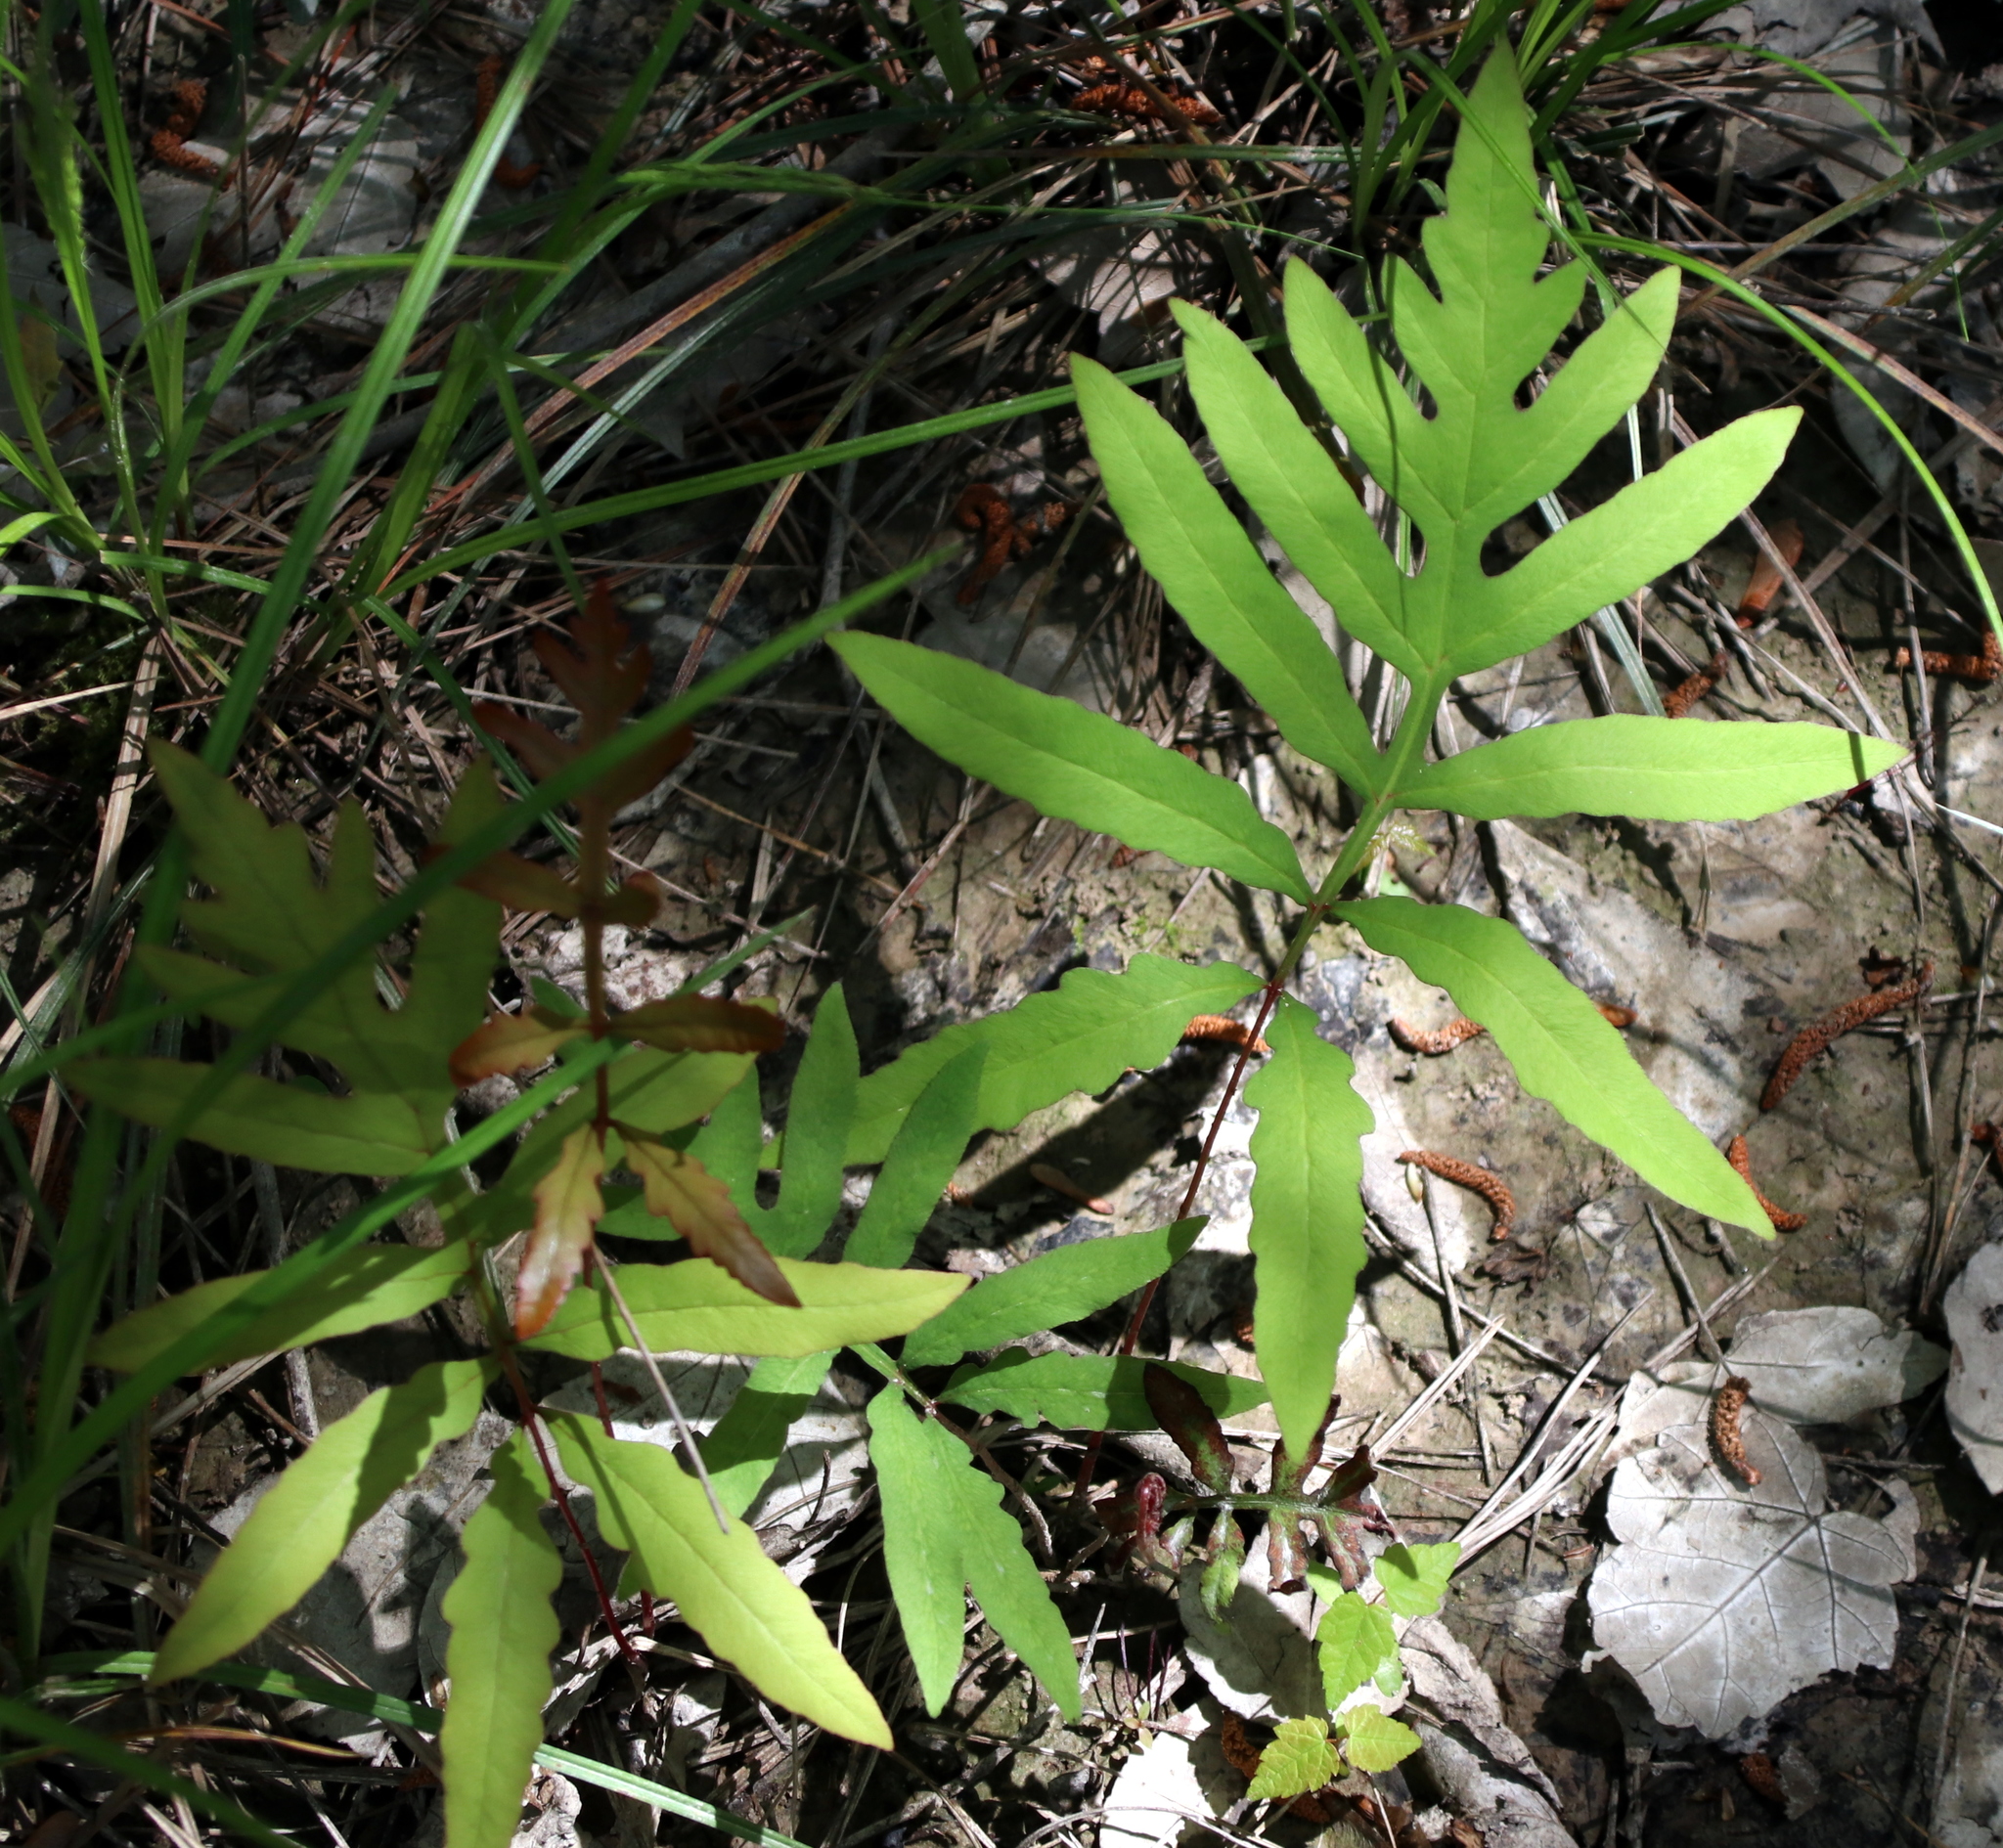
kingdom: Plantae
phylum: Tracheophyta
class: Polypodiopsida
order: Polypodiales
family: Onocleaceae
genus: Onoclea
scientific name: Onoclea sensibilis
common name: Sensitive fern
